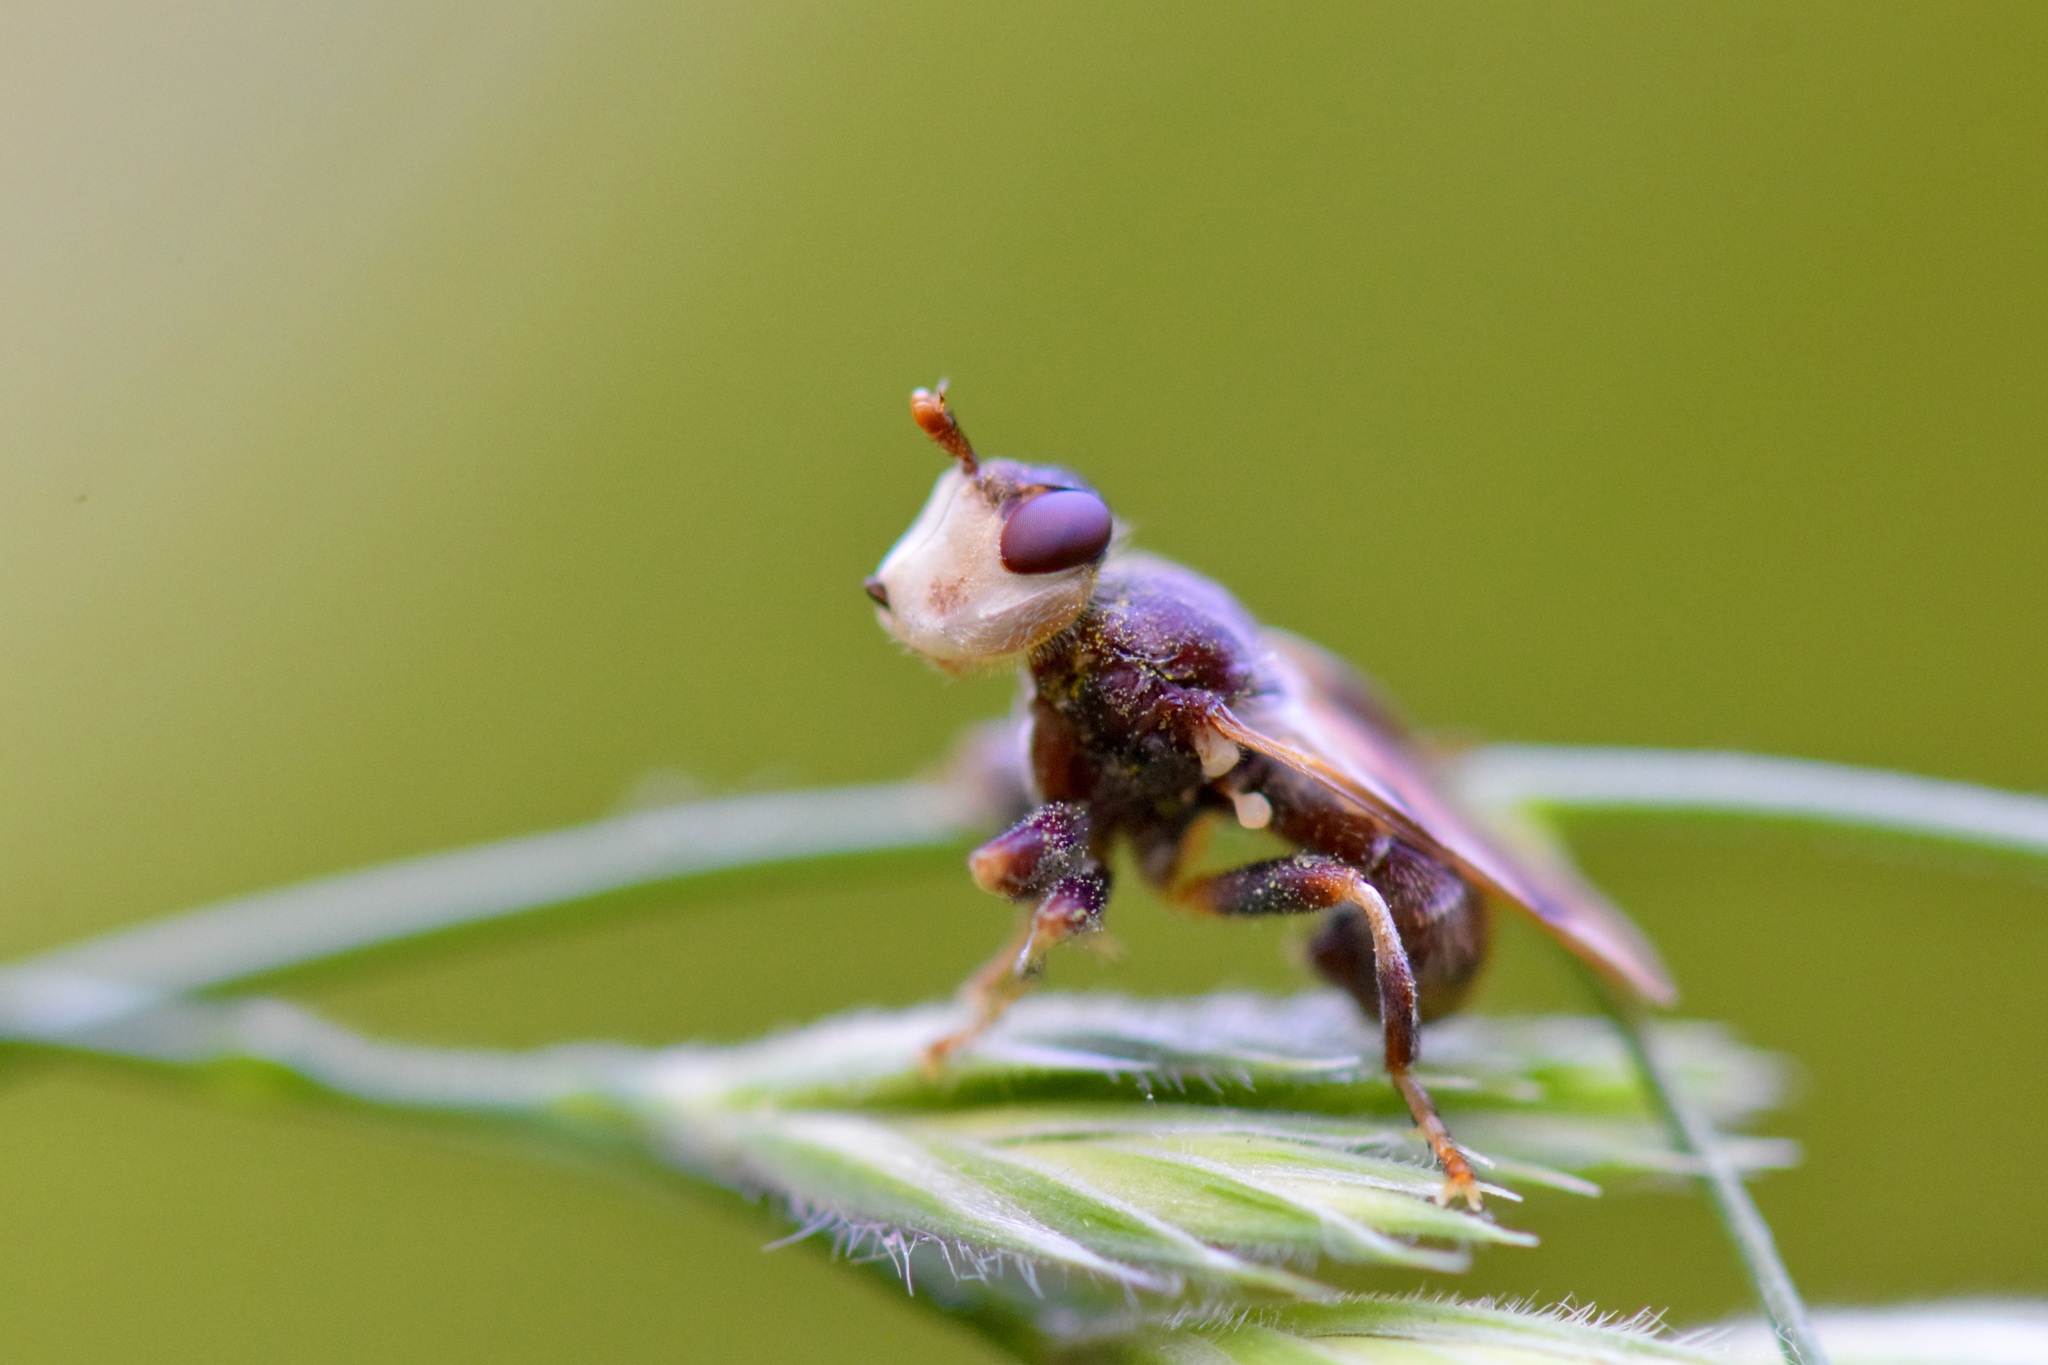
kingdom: Animalia
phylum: Arthropoda
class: Insecta
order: Diptera
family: Conopidae
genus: Myopa
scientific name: Myopa vesiculosa
